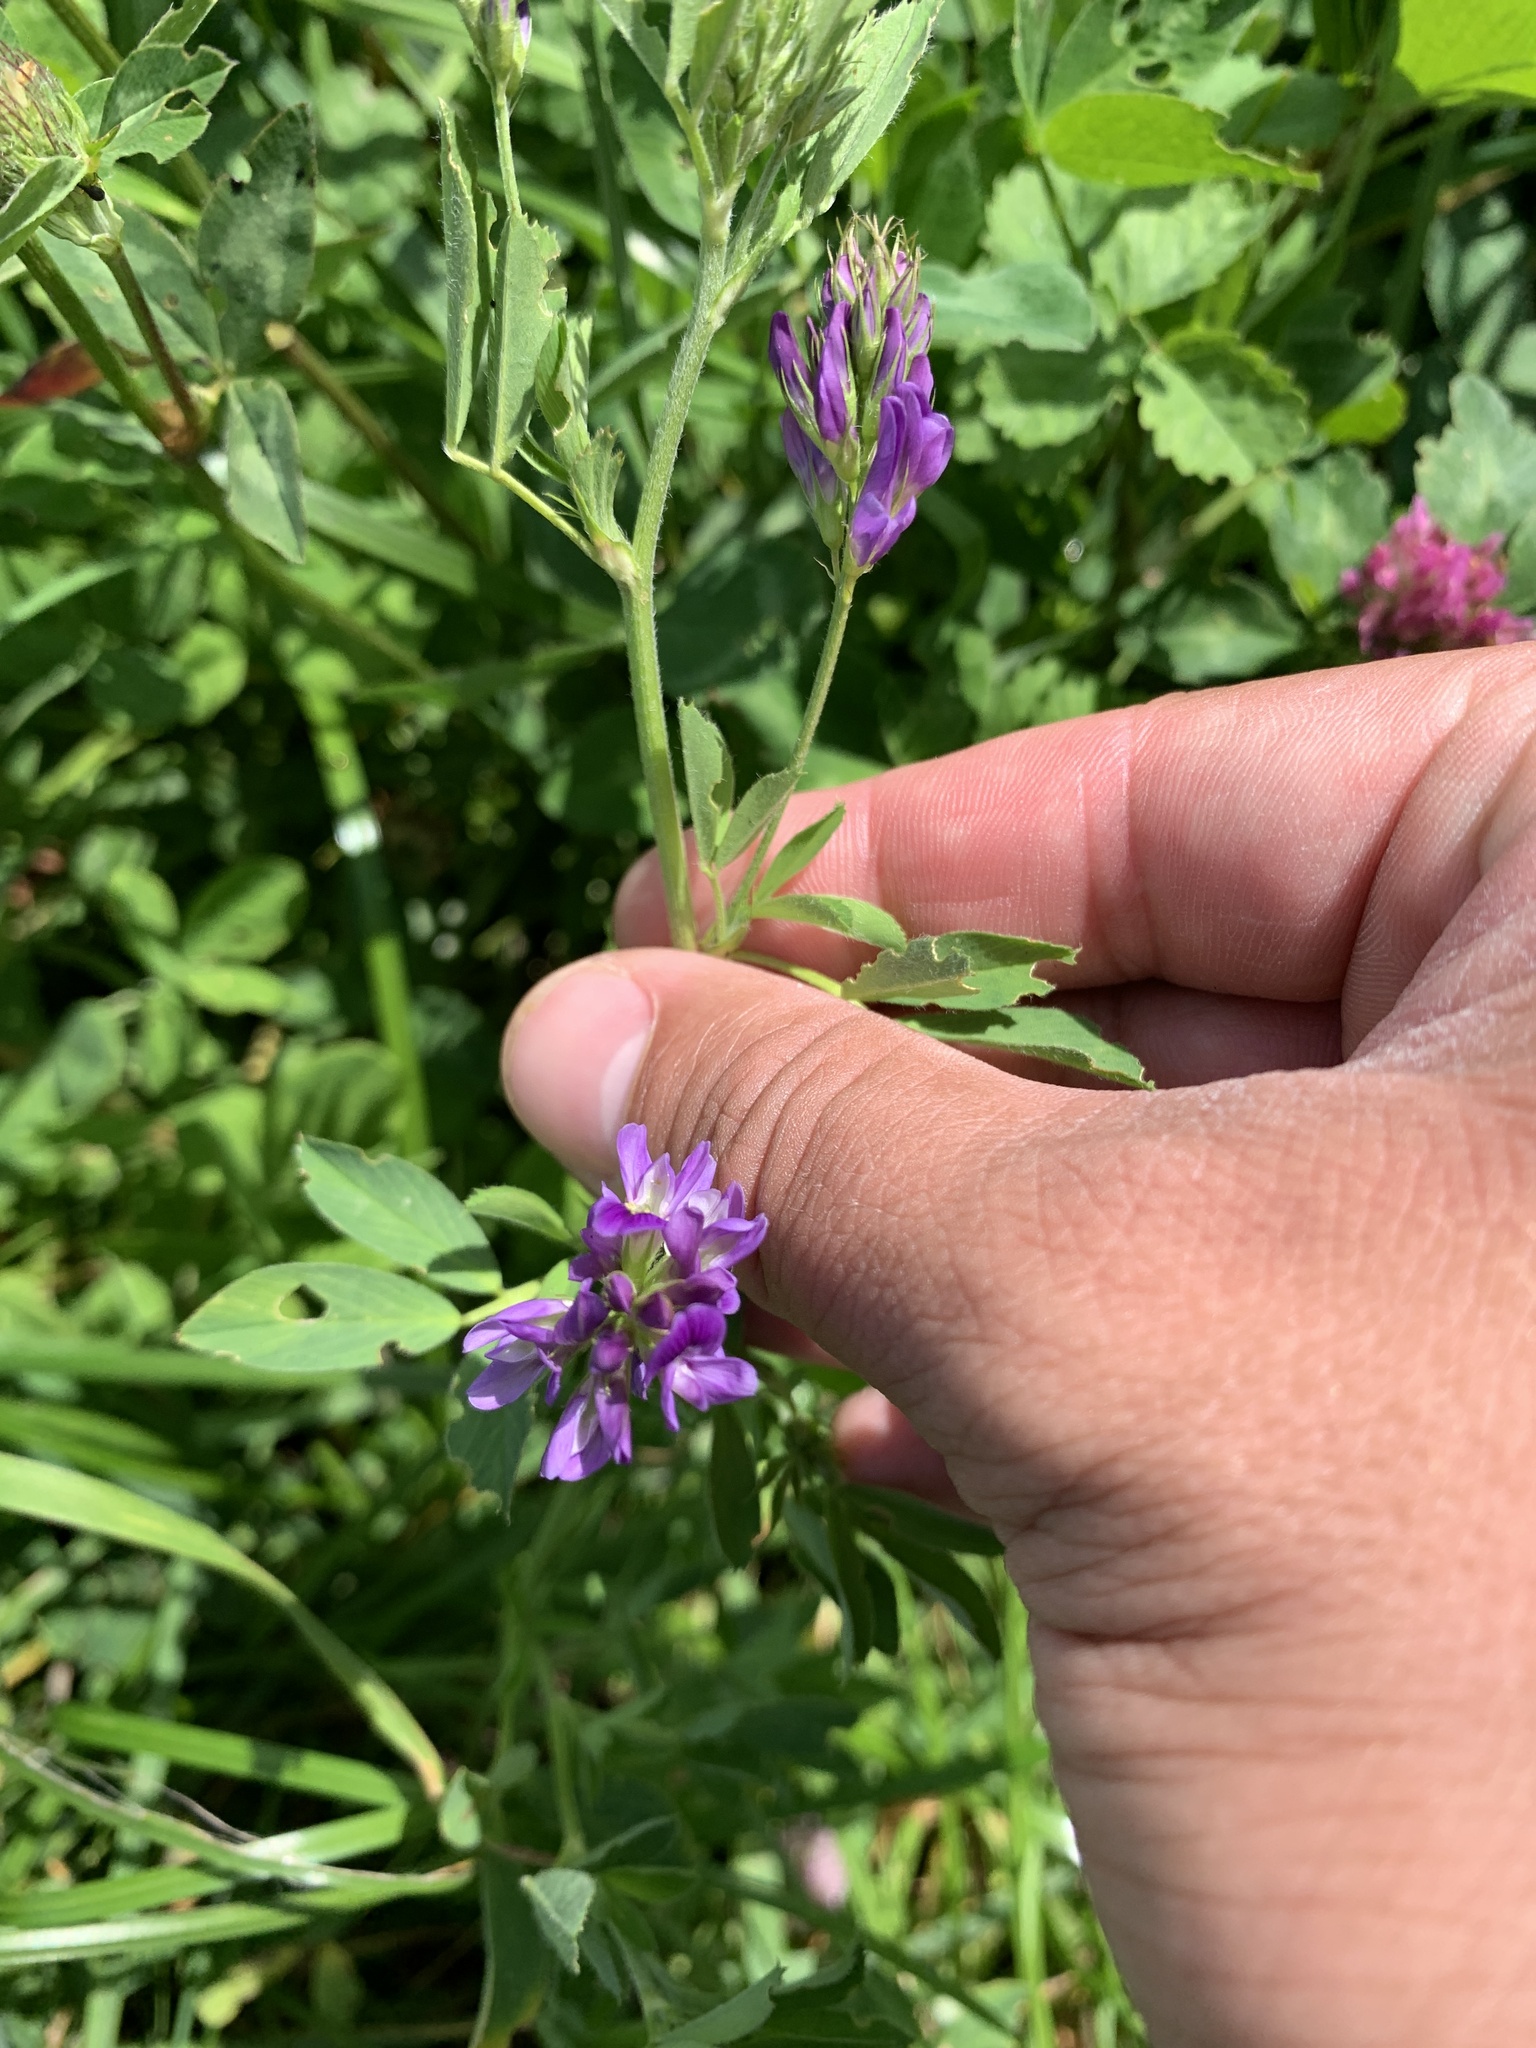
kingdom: Plantae
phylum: Tracheophyta
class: Magnoliopsida
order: Fabales
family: Fabaceae
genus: Medicago
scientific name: Medicago sativa
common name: Alfalfa
